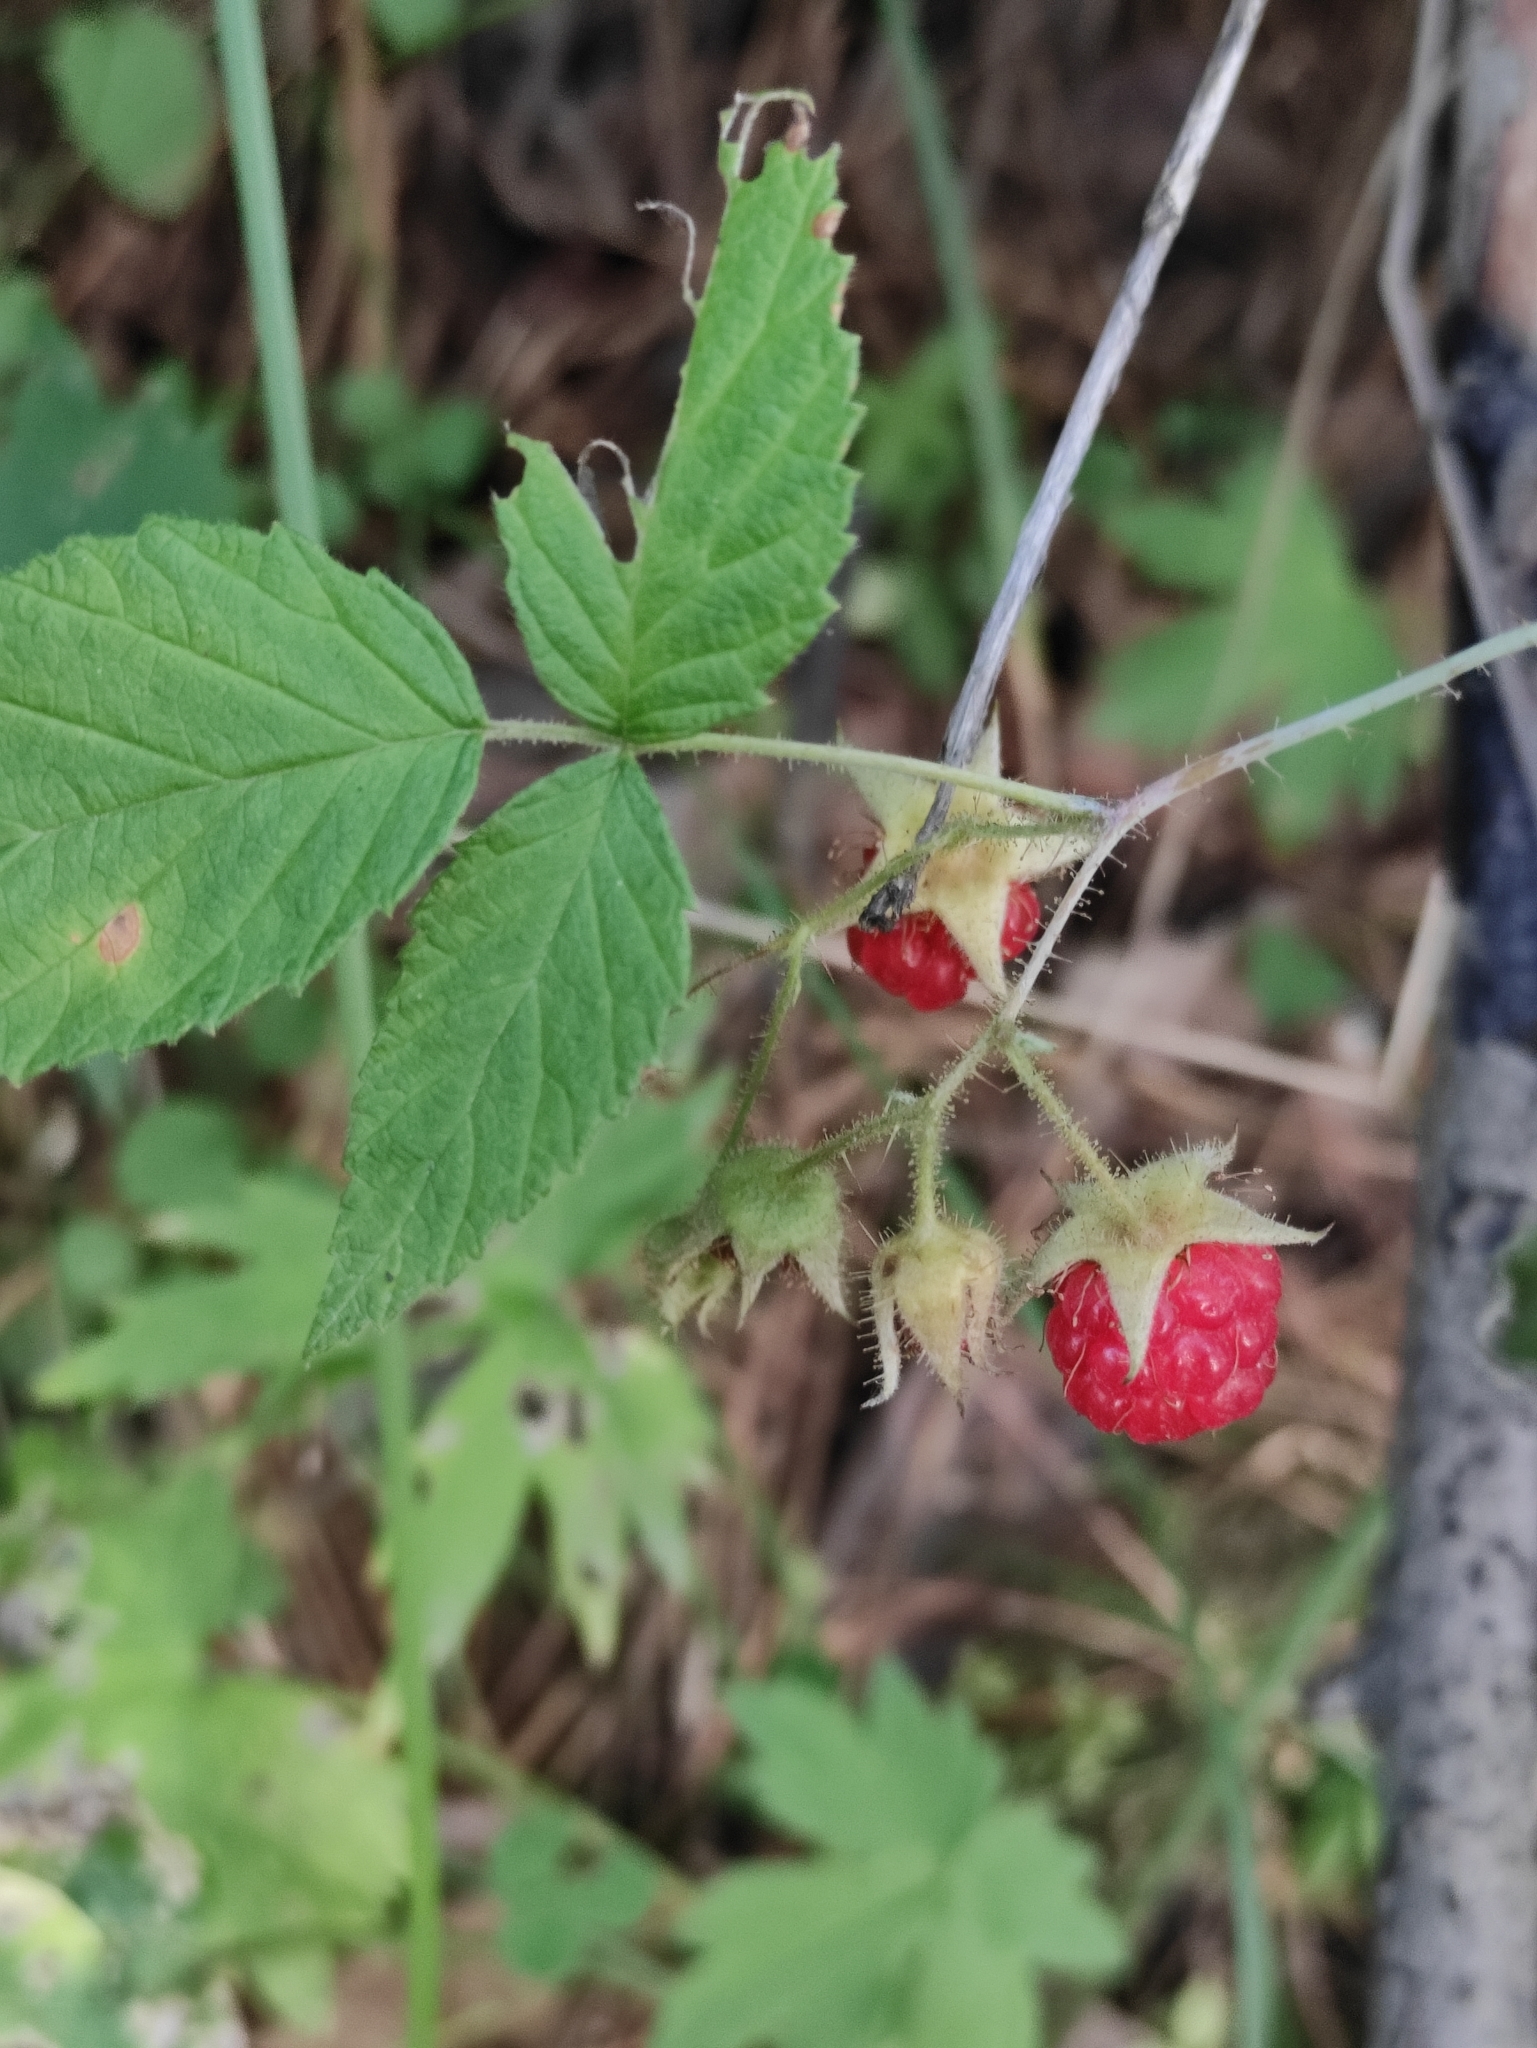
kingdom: Plantae
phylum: Tracheophyta
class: Magnoliopsida
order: Rosales
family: Rosaceae
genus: Rubus
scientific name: Rubus sachalinensis
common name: Red raspberry
